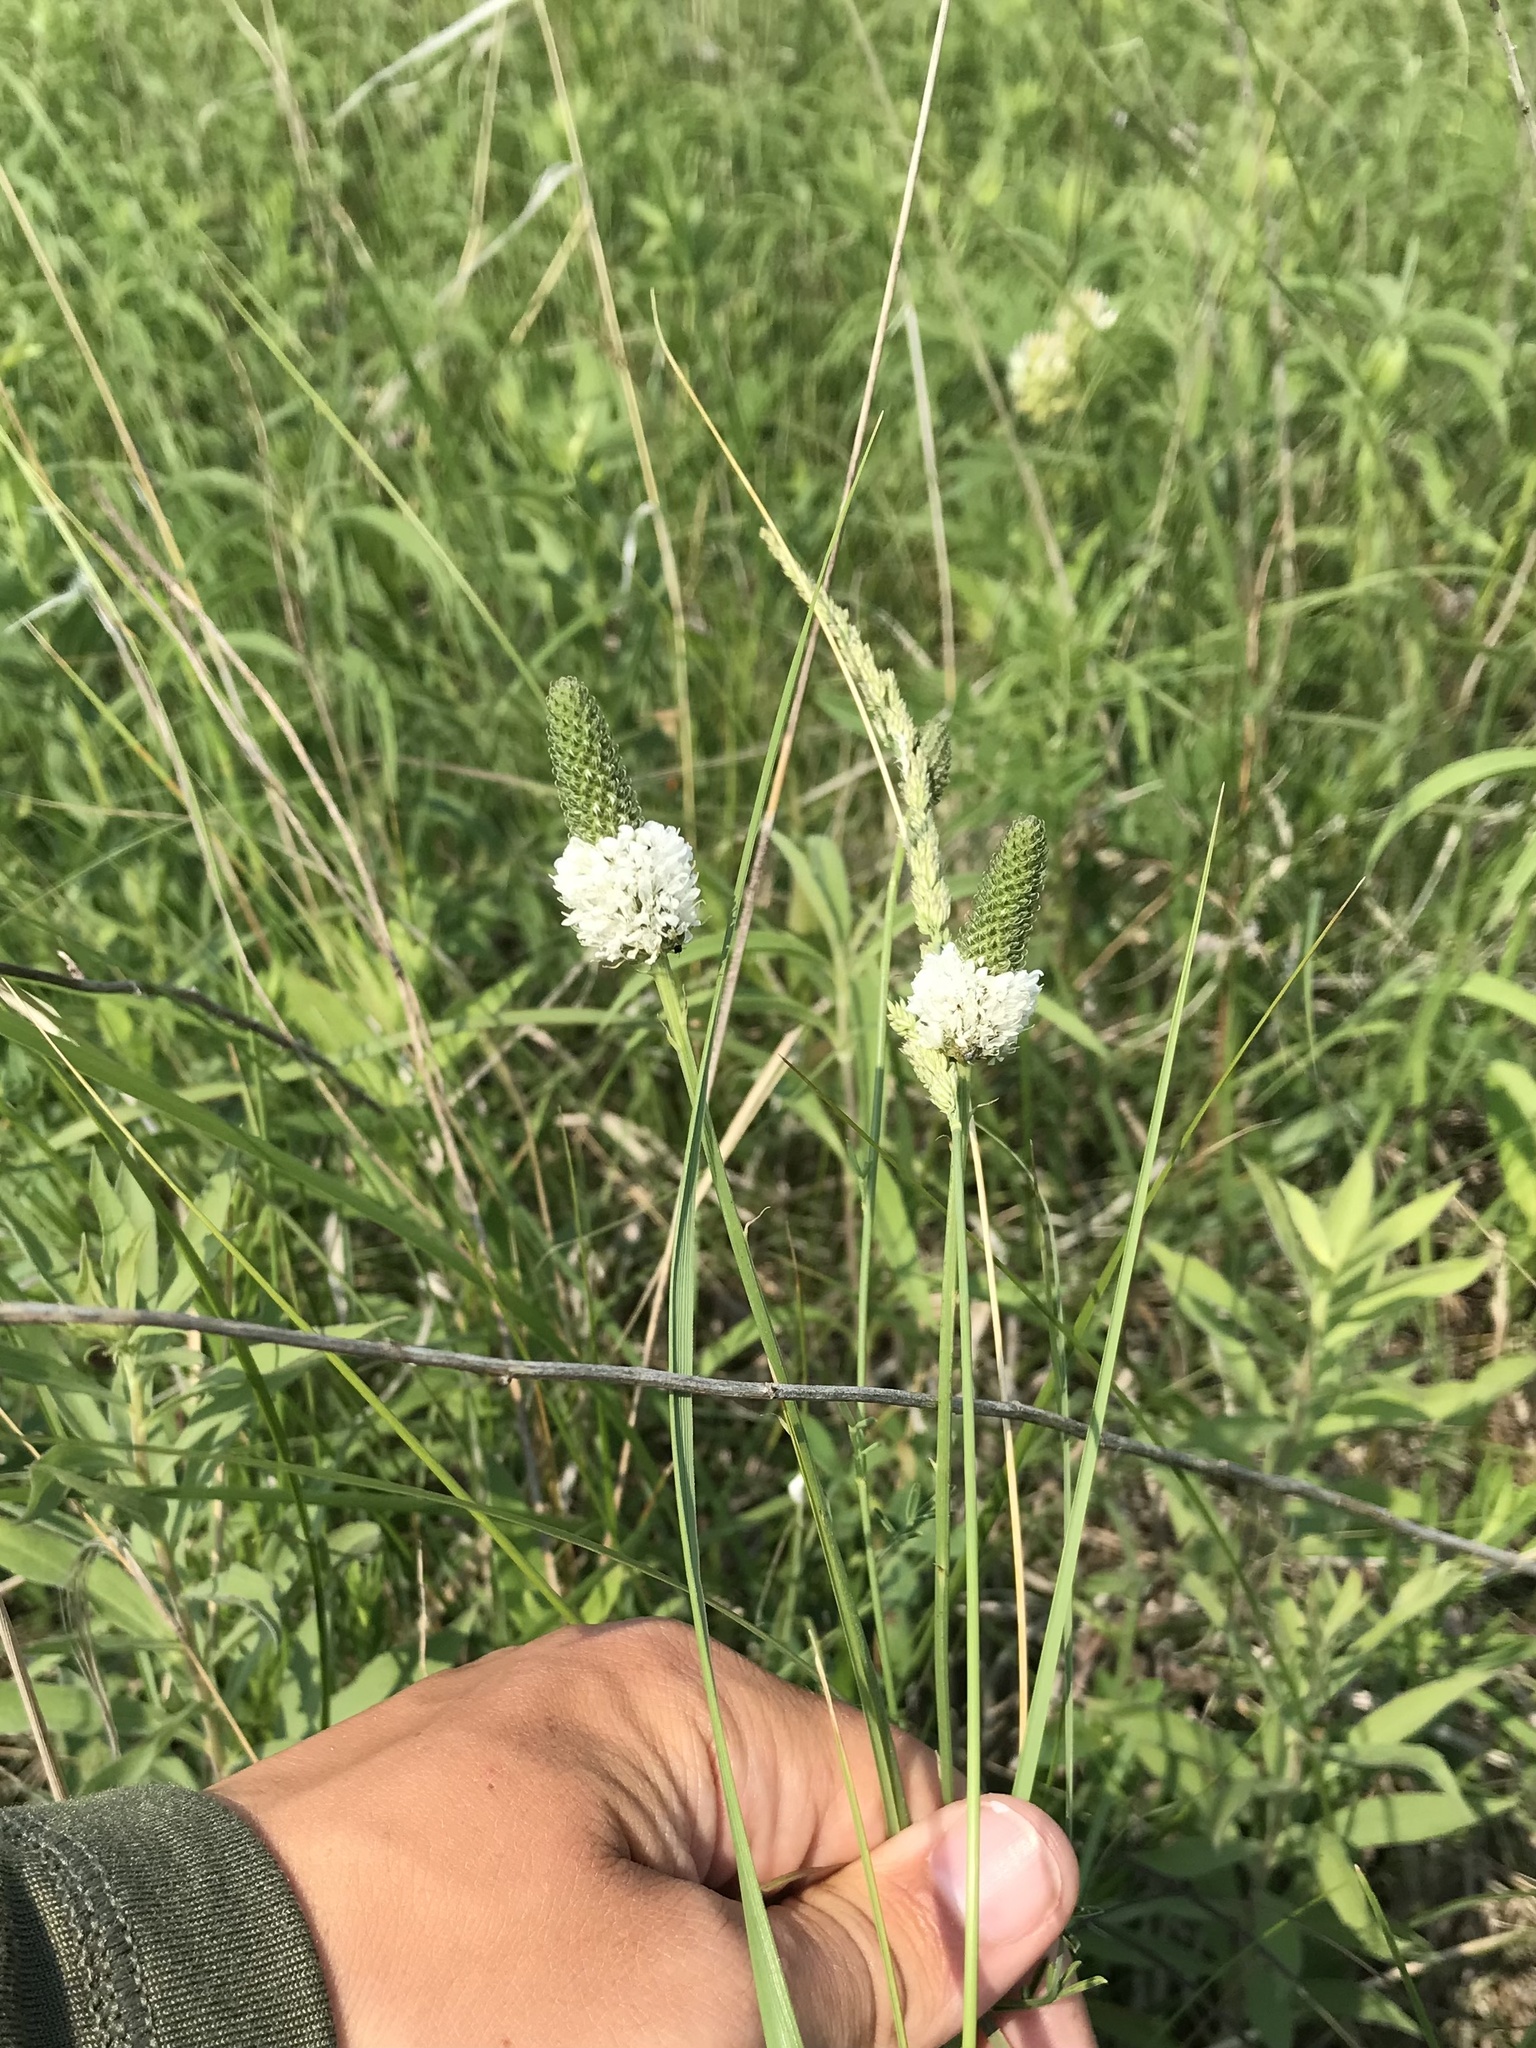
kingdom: Plantae
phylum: Tracheophyta
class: Magnoliopsida
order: Fabales
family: Fabaceae
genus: Dalea
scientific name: Dalea candida
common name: White prairie-clover
